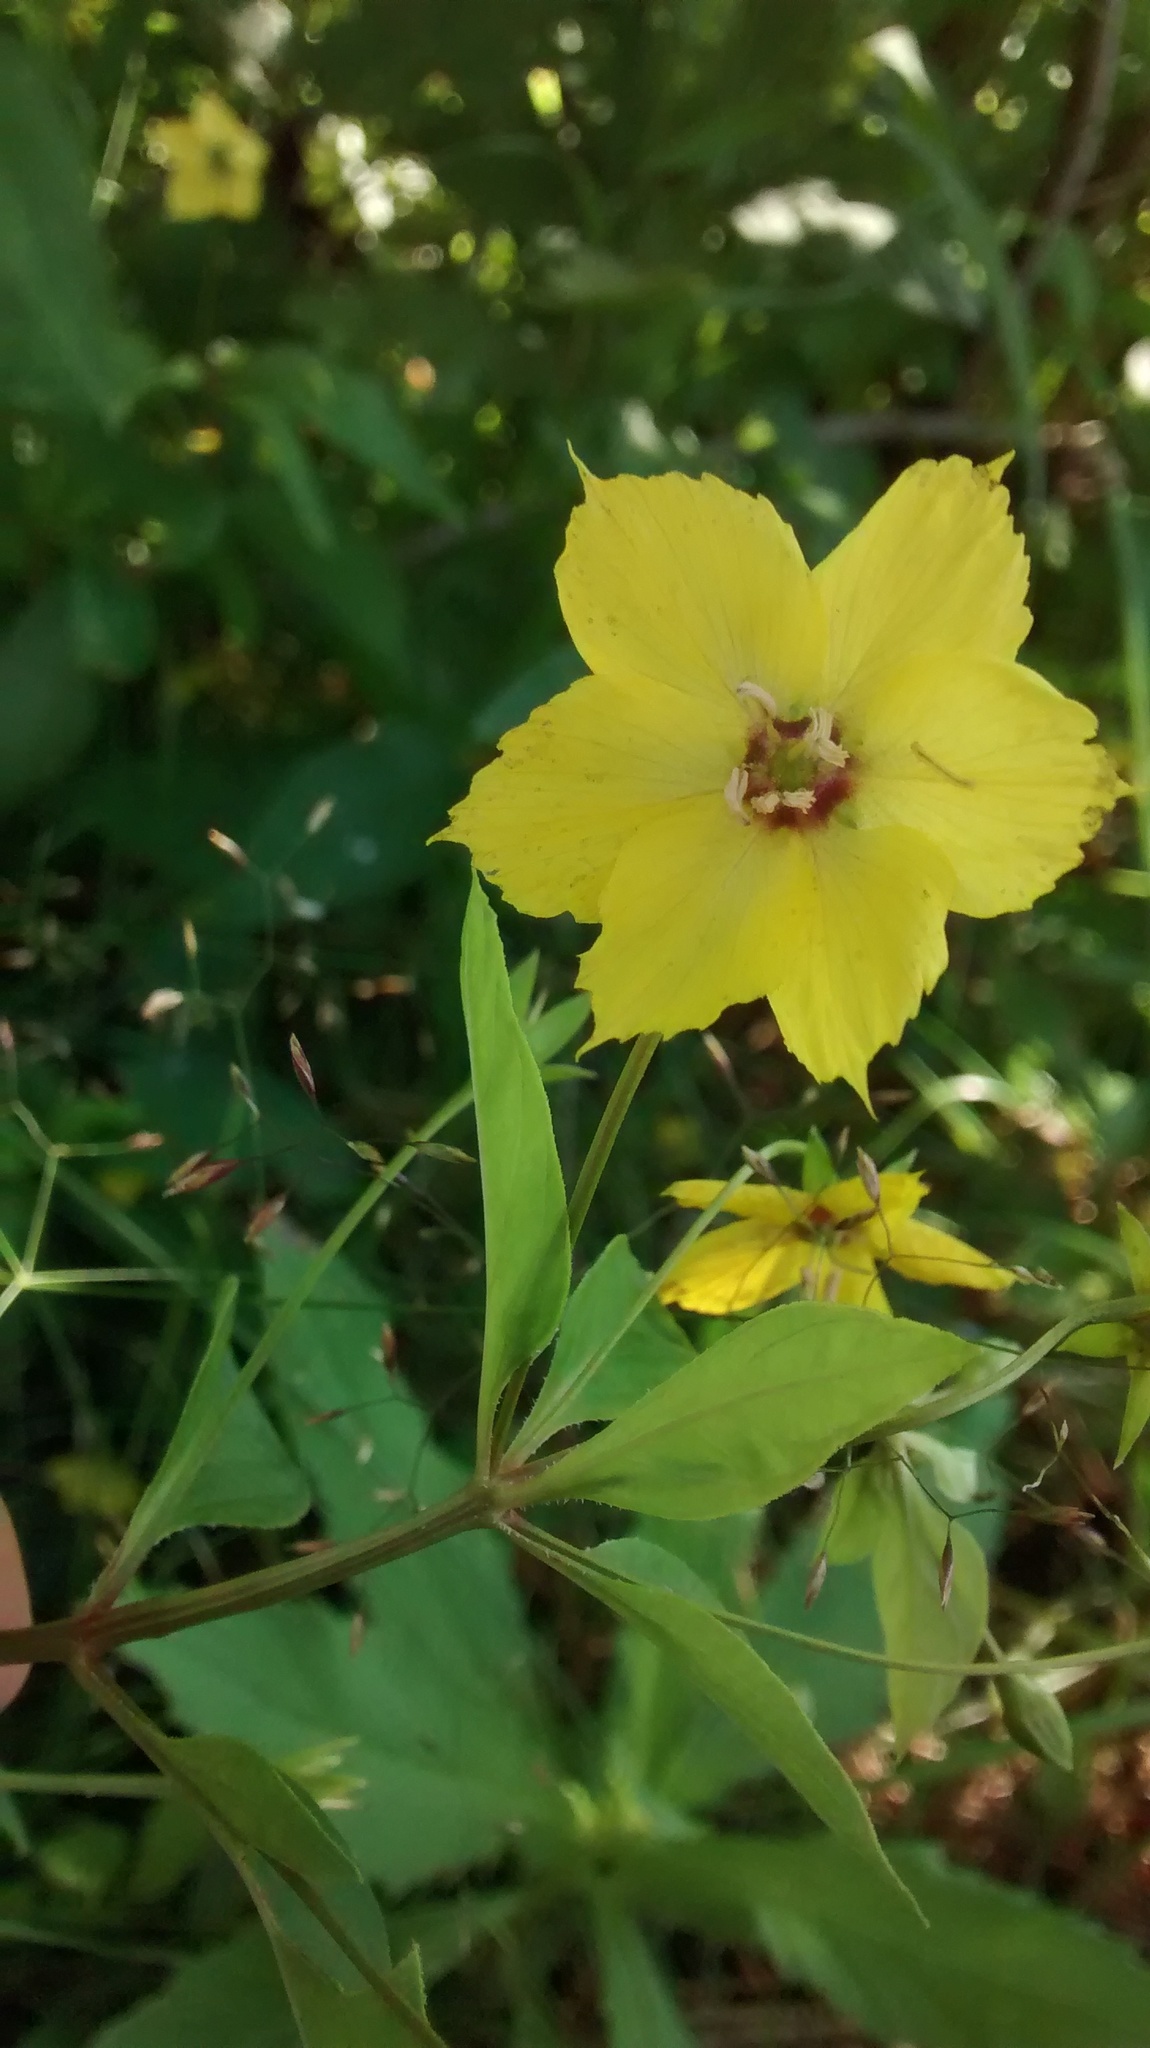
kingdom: Plantae
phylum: Tracheophyta
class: Magnoliopsida
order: Ericales
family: Primulaceae
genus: Lysimachia
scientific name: Lysimachia ciliata
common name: Fringed loosestrife
